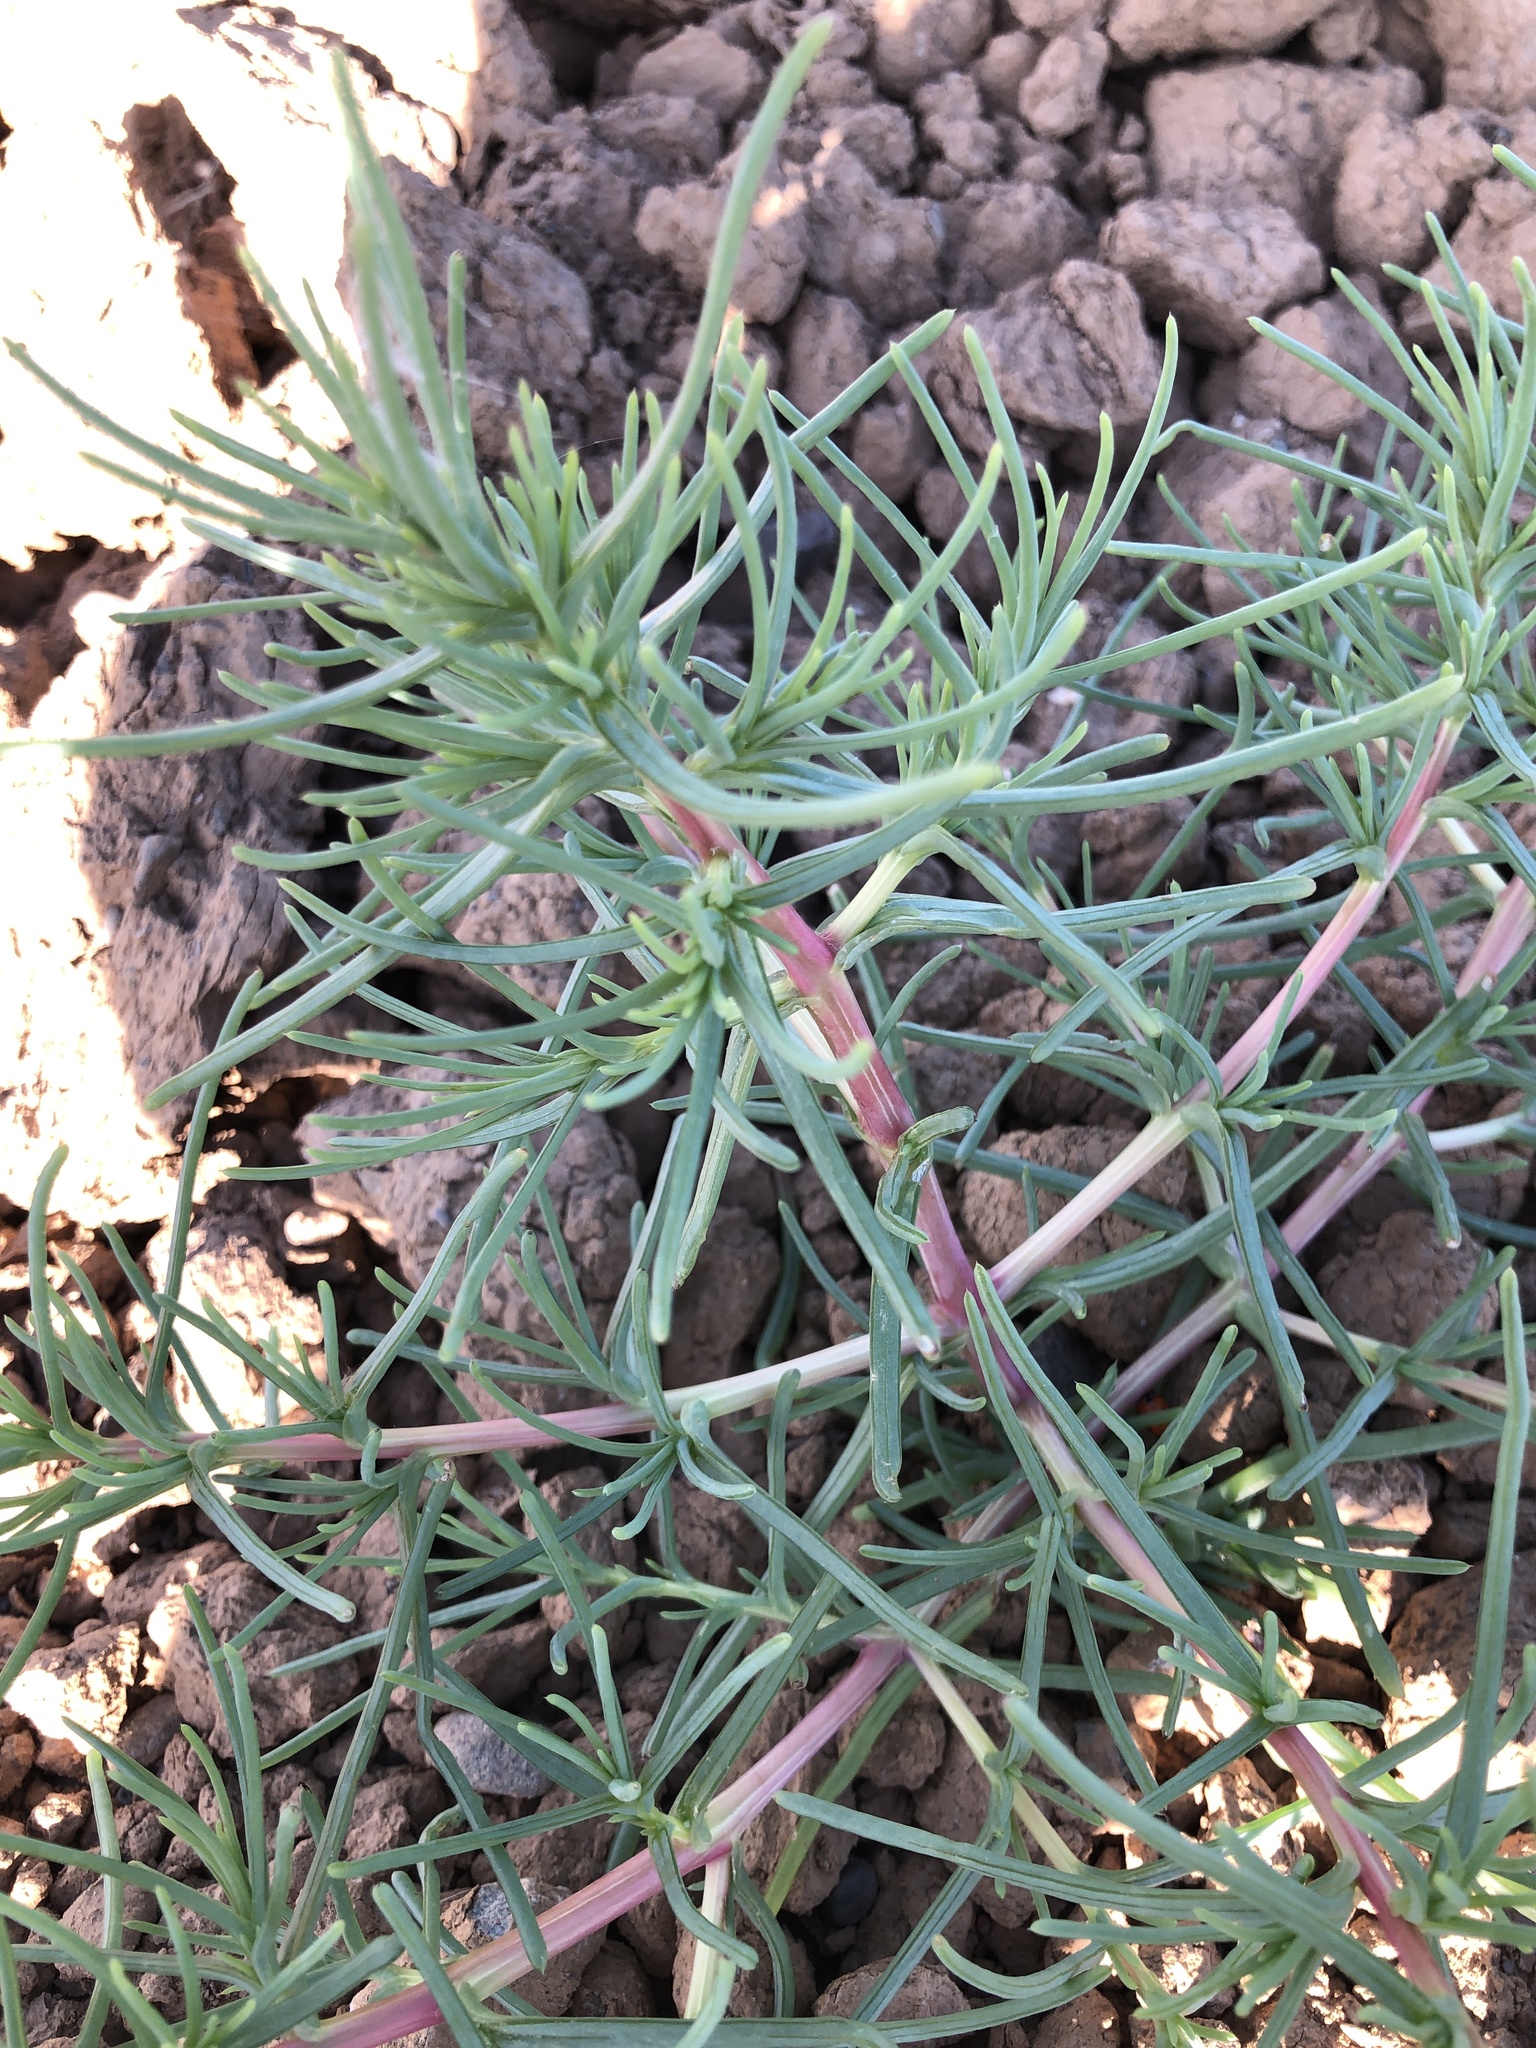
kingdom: Plantae
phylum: Tracheophyta
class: Magnoliopsida
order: Caryophyllales
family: Amaranthaceae
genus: Salsola
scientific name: Salsola soda
